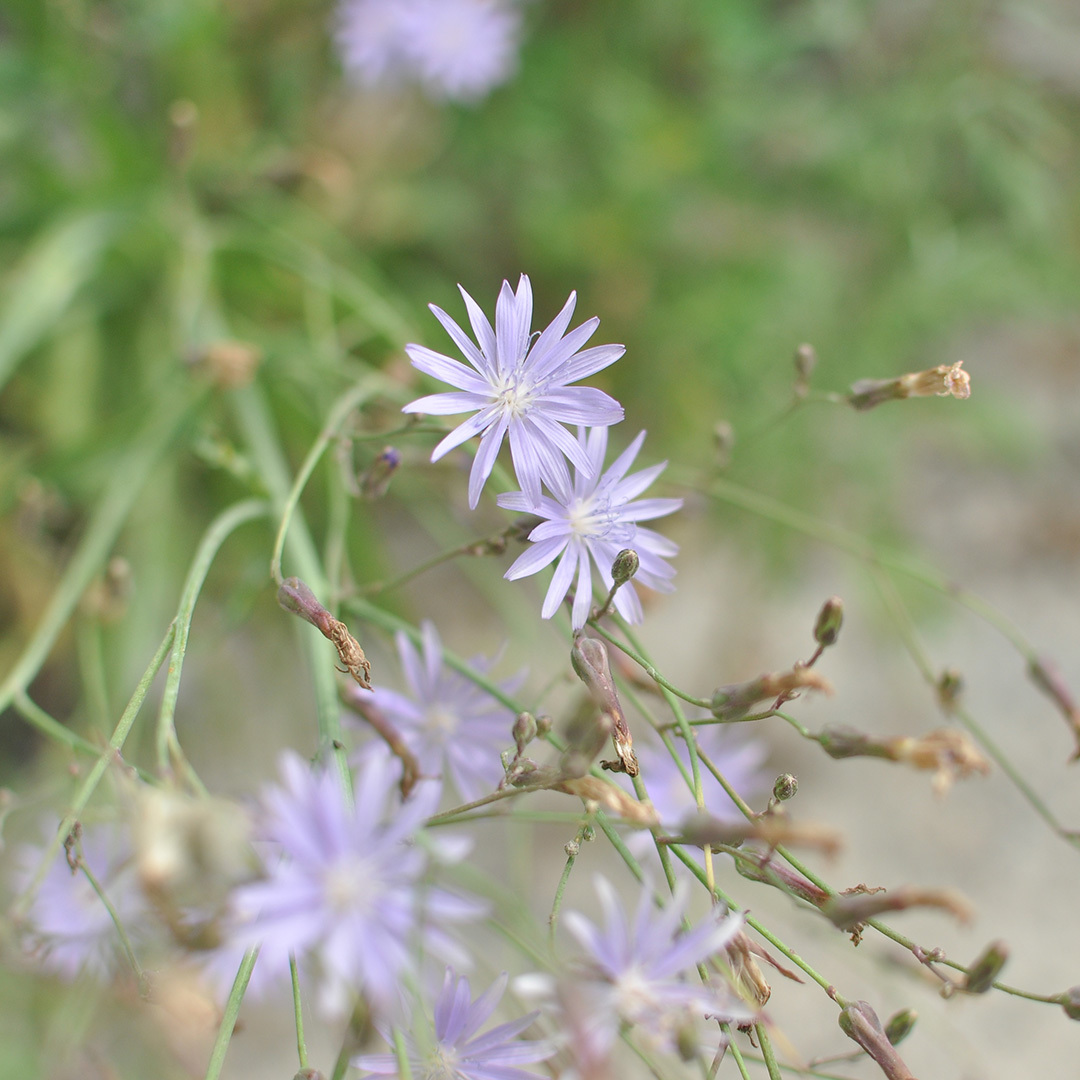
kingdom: Plantae
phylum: Tracheophyta
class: Magnoliopsida
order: Asterales
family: Asteraceae
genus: Lactuca
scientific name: Lactuca tatarica
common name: Blue lettuce
